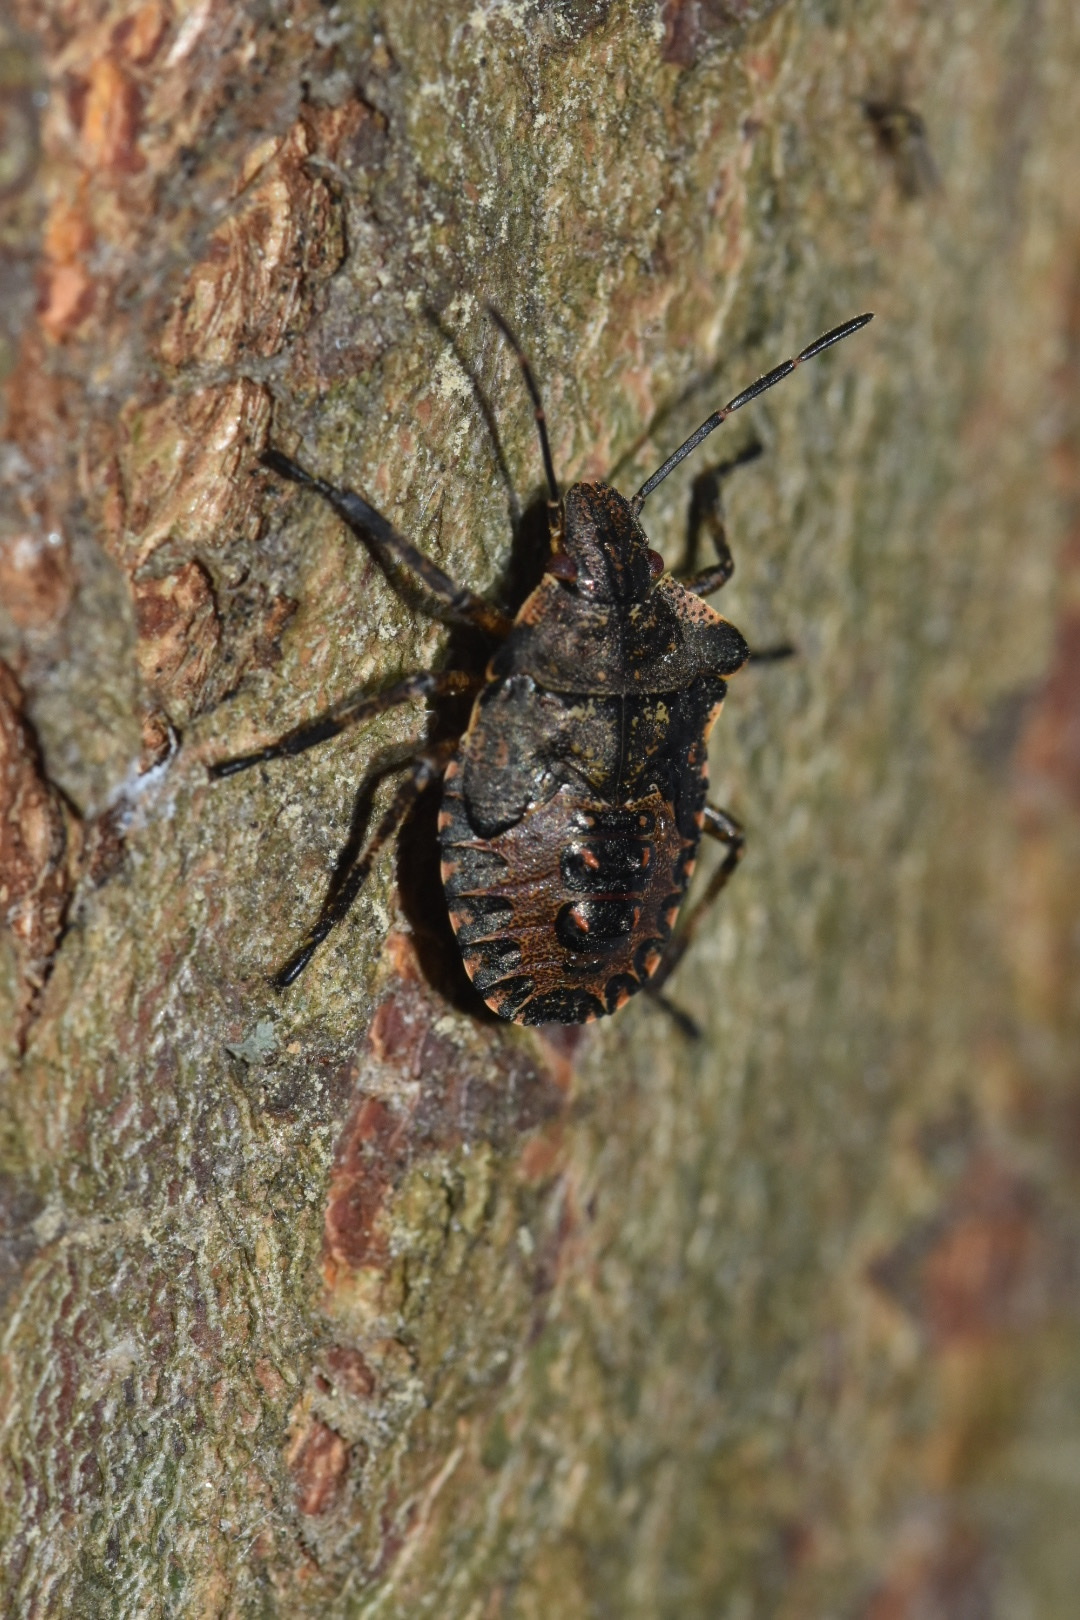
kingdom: Animalia
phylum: Arthropoda
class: Insecta
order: Hemiptera
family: Pentatomidae
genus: Pentatoma
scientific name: Pentatoma rufipes
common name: Forest bug
